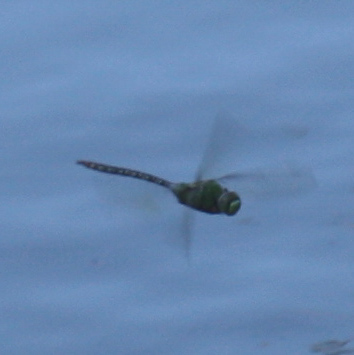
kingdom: Animalia
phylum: Arthropoda
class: Insecta
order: Odonata
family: Aeshnidae
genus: Anax
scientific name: Anax concolor
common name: Blue-spotted comet darner
